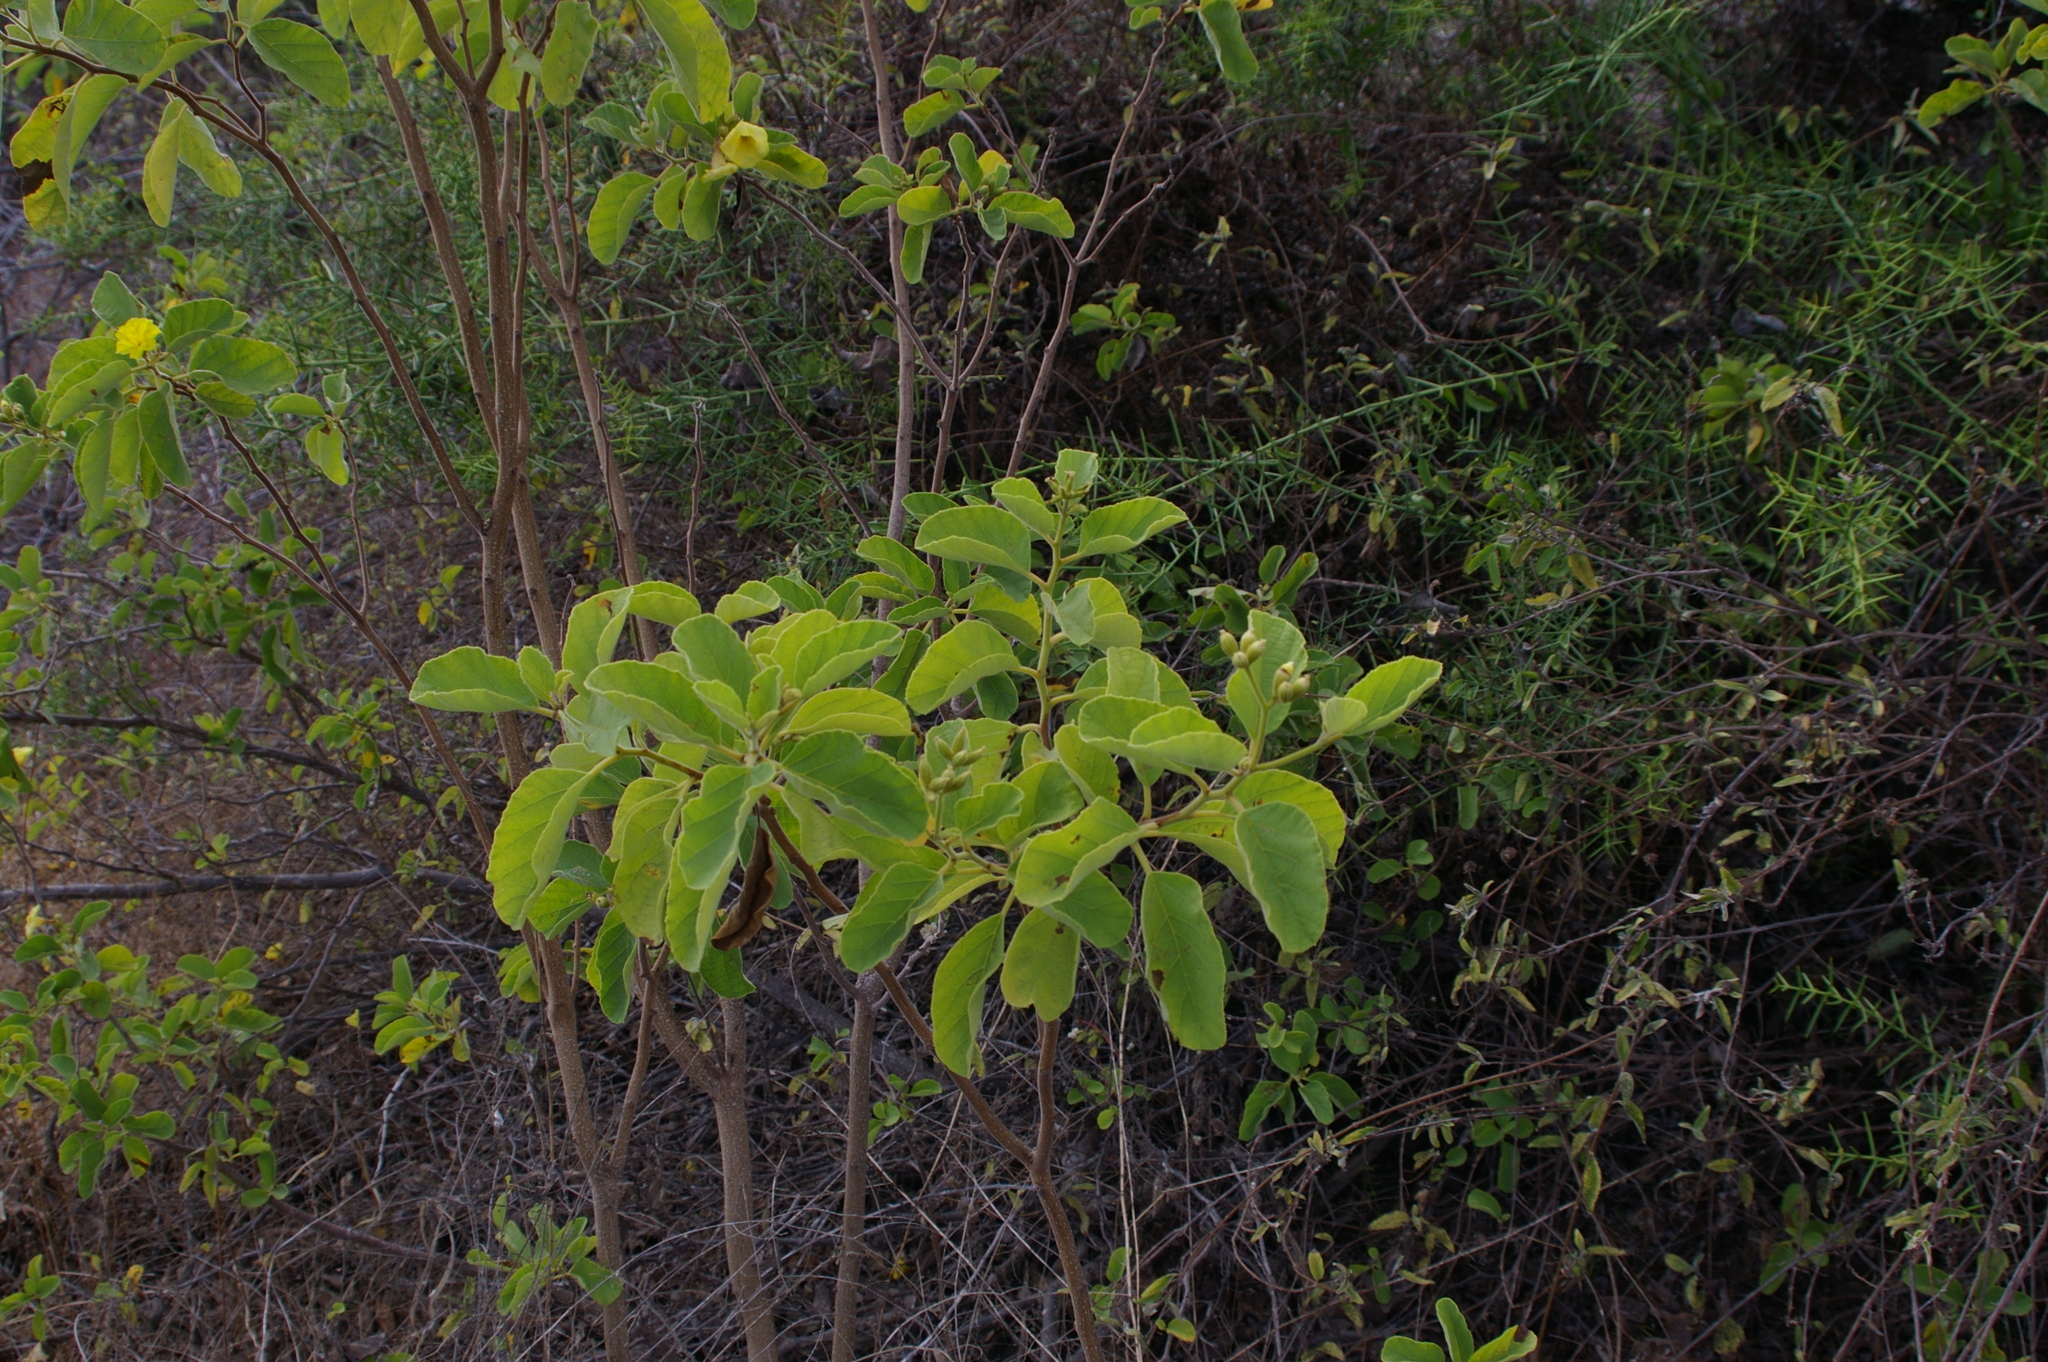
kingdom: Plantae
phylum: Tracheophyta
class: Magnoliopsida
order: Boraginales
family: Cordiaceae
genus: Cordia
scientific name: Cordia lutea
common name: Yellow geiger
